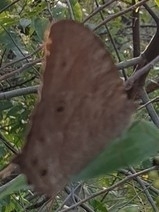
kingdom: Animalia
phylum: Arthropoda
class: Insecta
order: Lepidoptera
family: Nymphalidae
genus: Melanitis
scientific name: Melanitis leda
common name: Twilight brown
